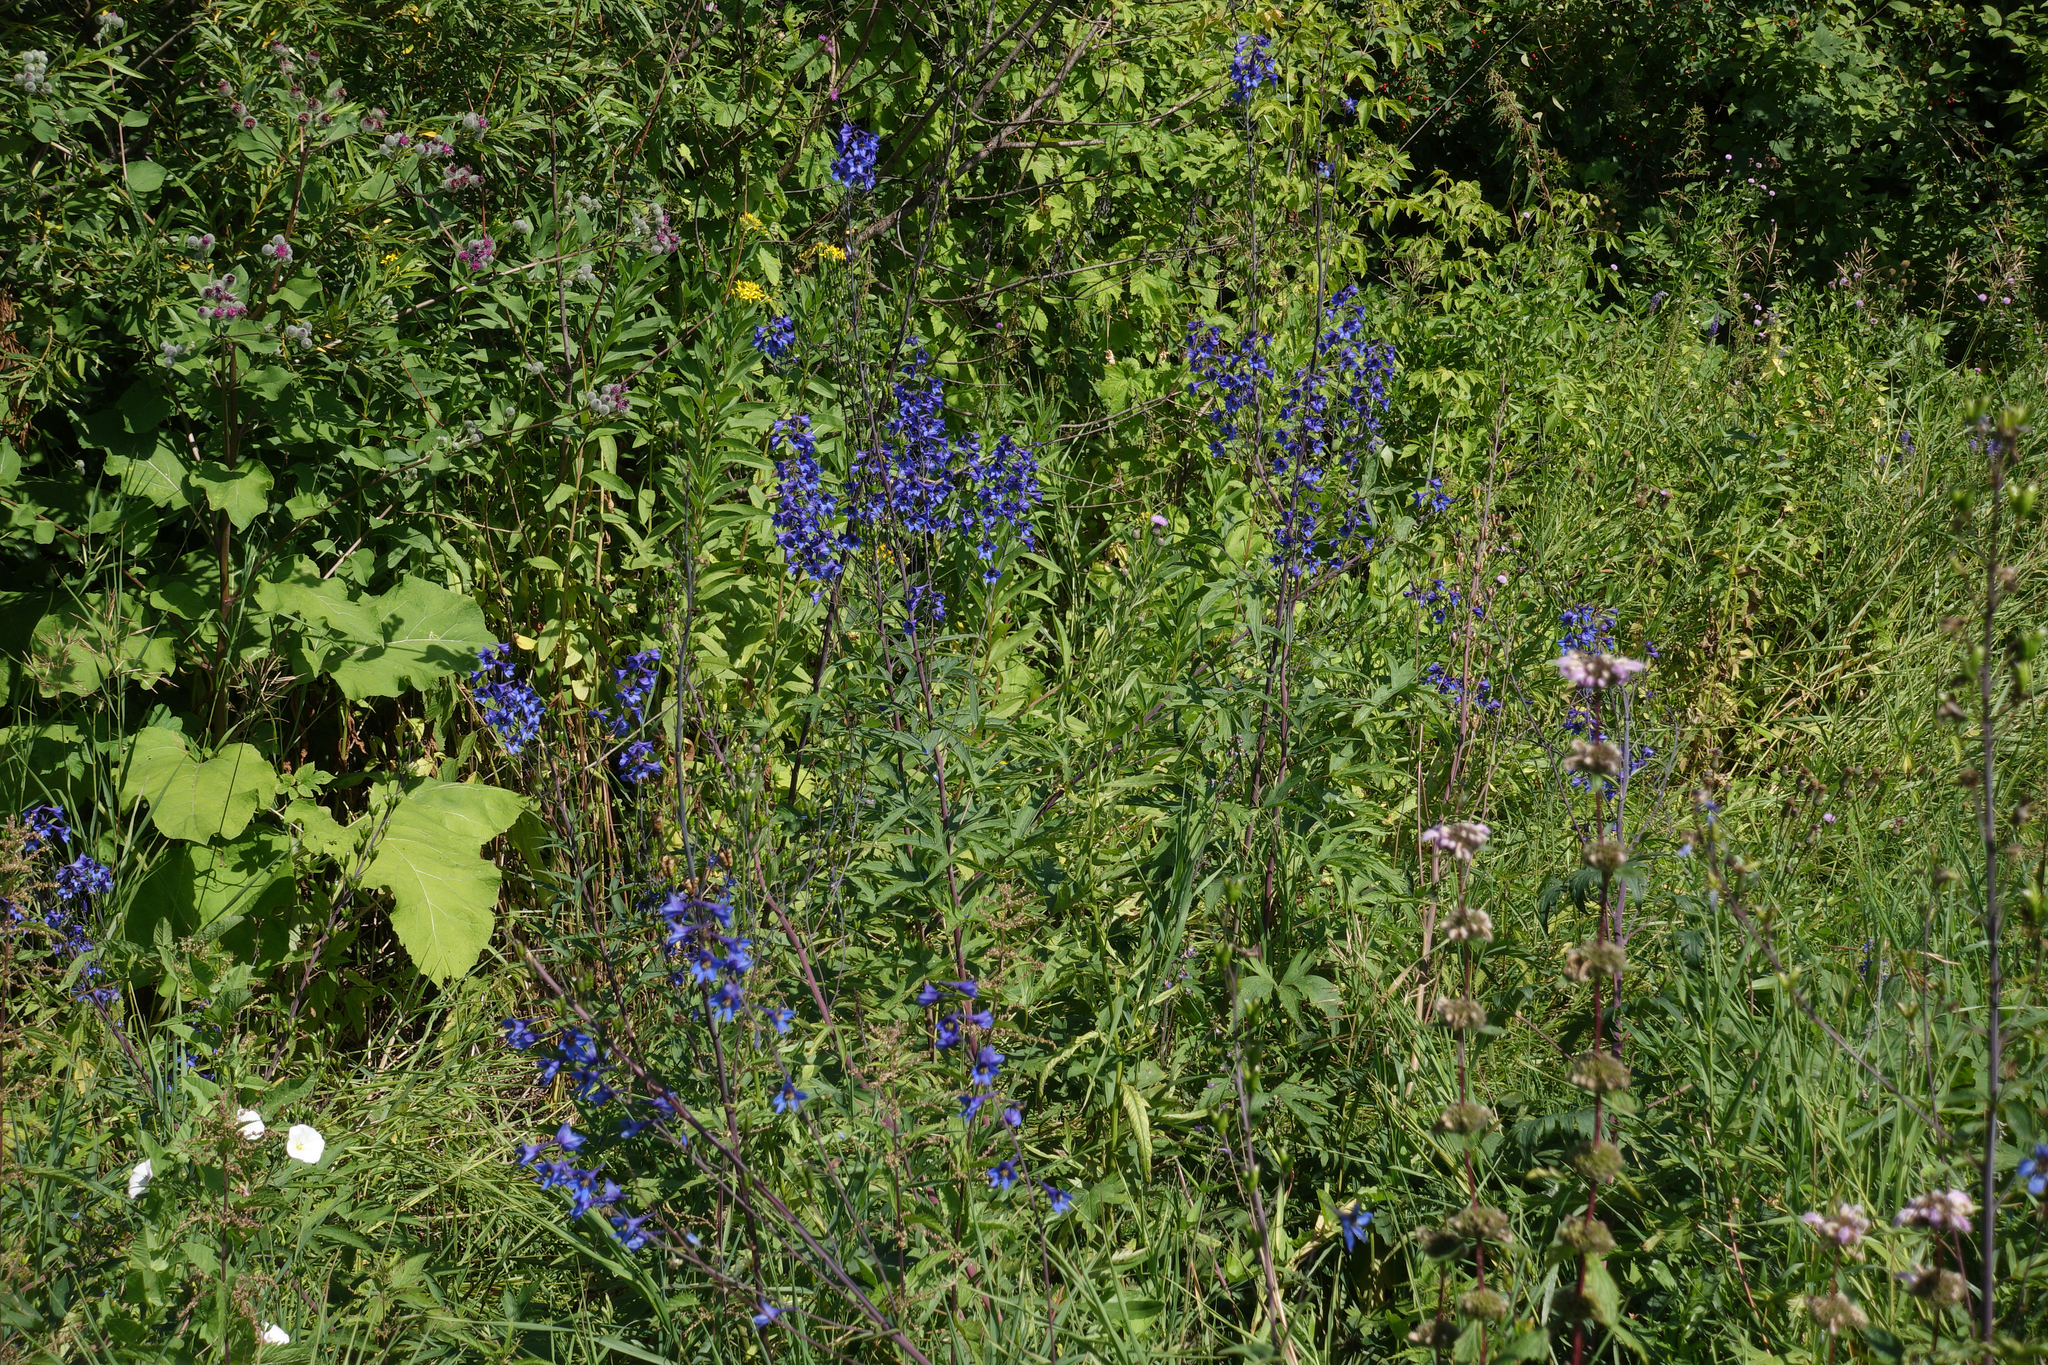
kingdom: Plantae
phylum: Tracheophyta
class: Magnoliopsida
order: Ranunculales
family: Ranunculaceae
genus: Delphinium
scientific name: Delphinium elatum
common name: Candle larkspur
